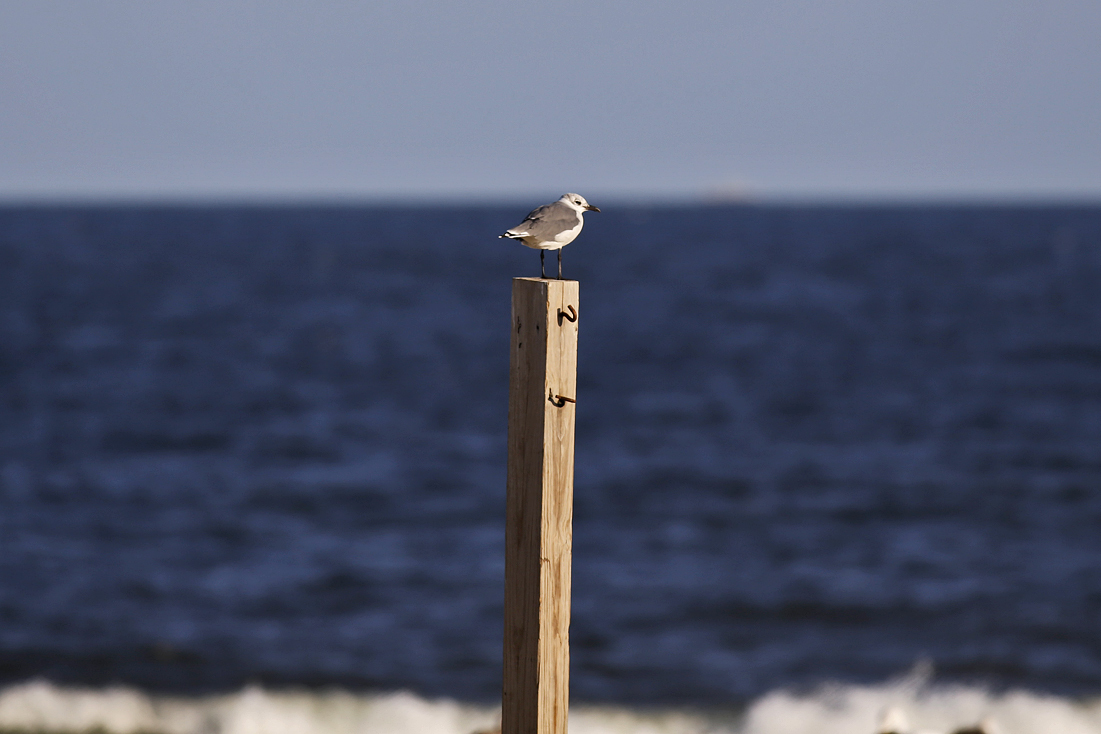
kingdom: Animalia
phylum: Chordata
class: Aves
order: Charadriiformes
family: Laridae
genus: Leucophaeus
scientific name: Leucophaeus atricilla
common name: Laughing gull
